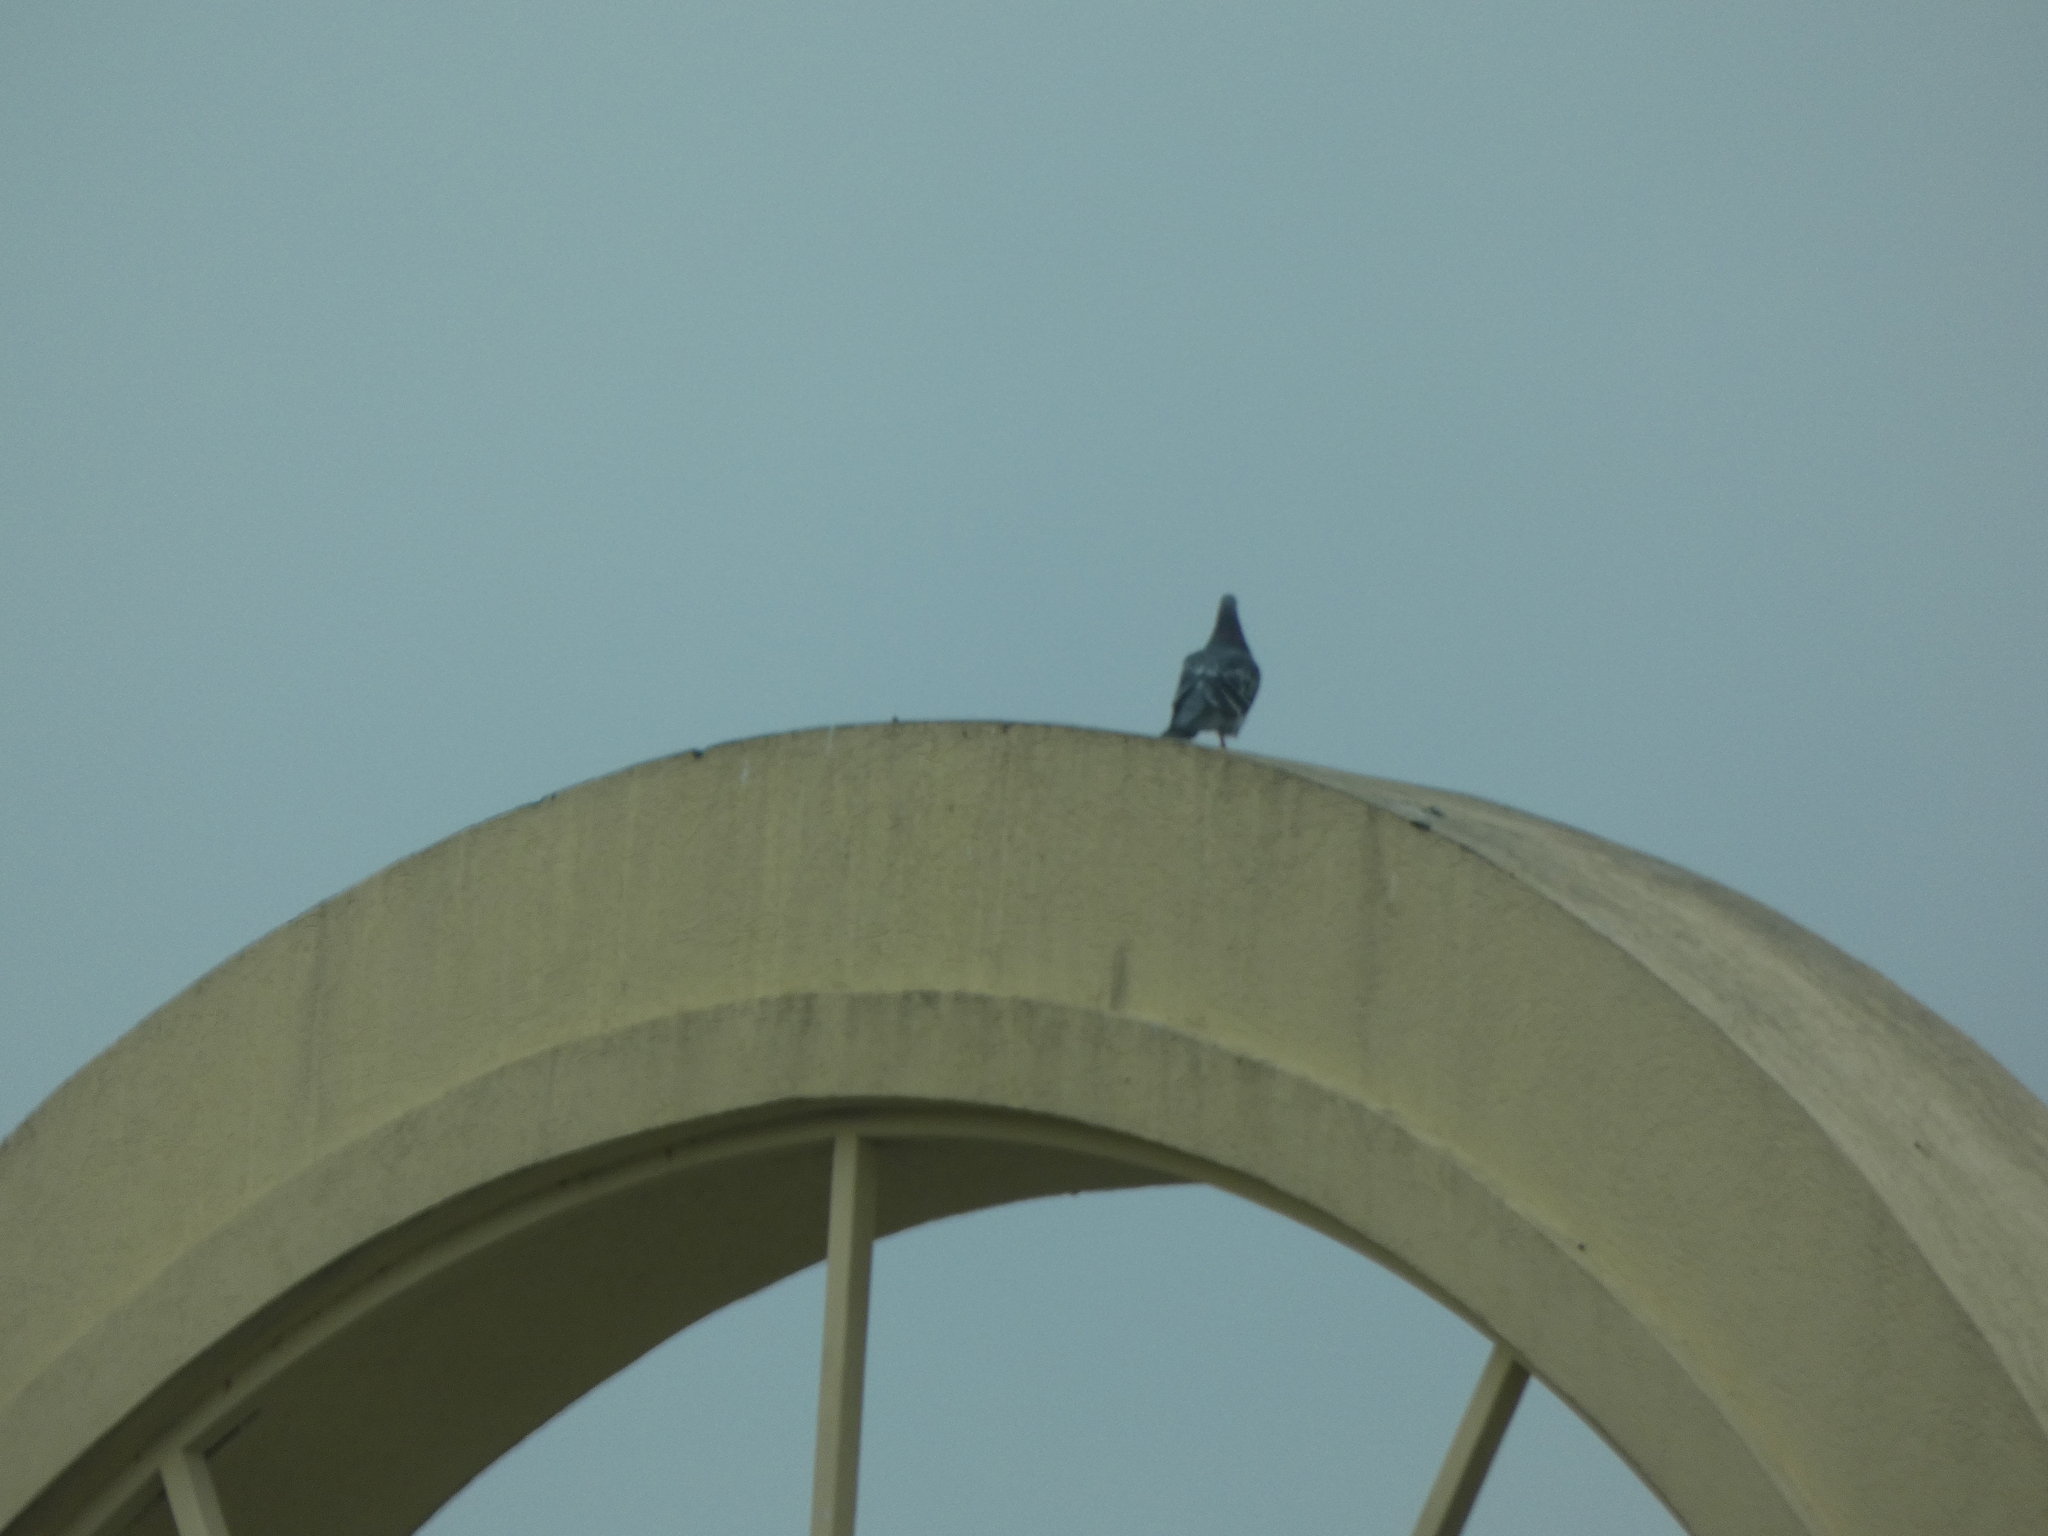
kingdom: Animalia
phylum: Chordata
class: Aves
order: Columbiformes
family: Columbidae
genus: Columba
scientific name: Columba livia
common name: Rock pigeon
